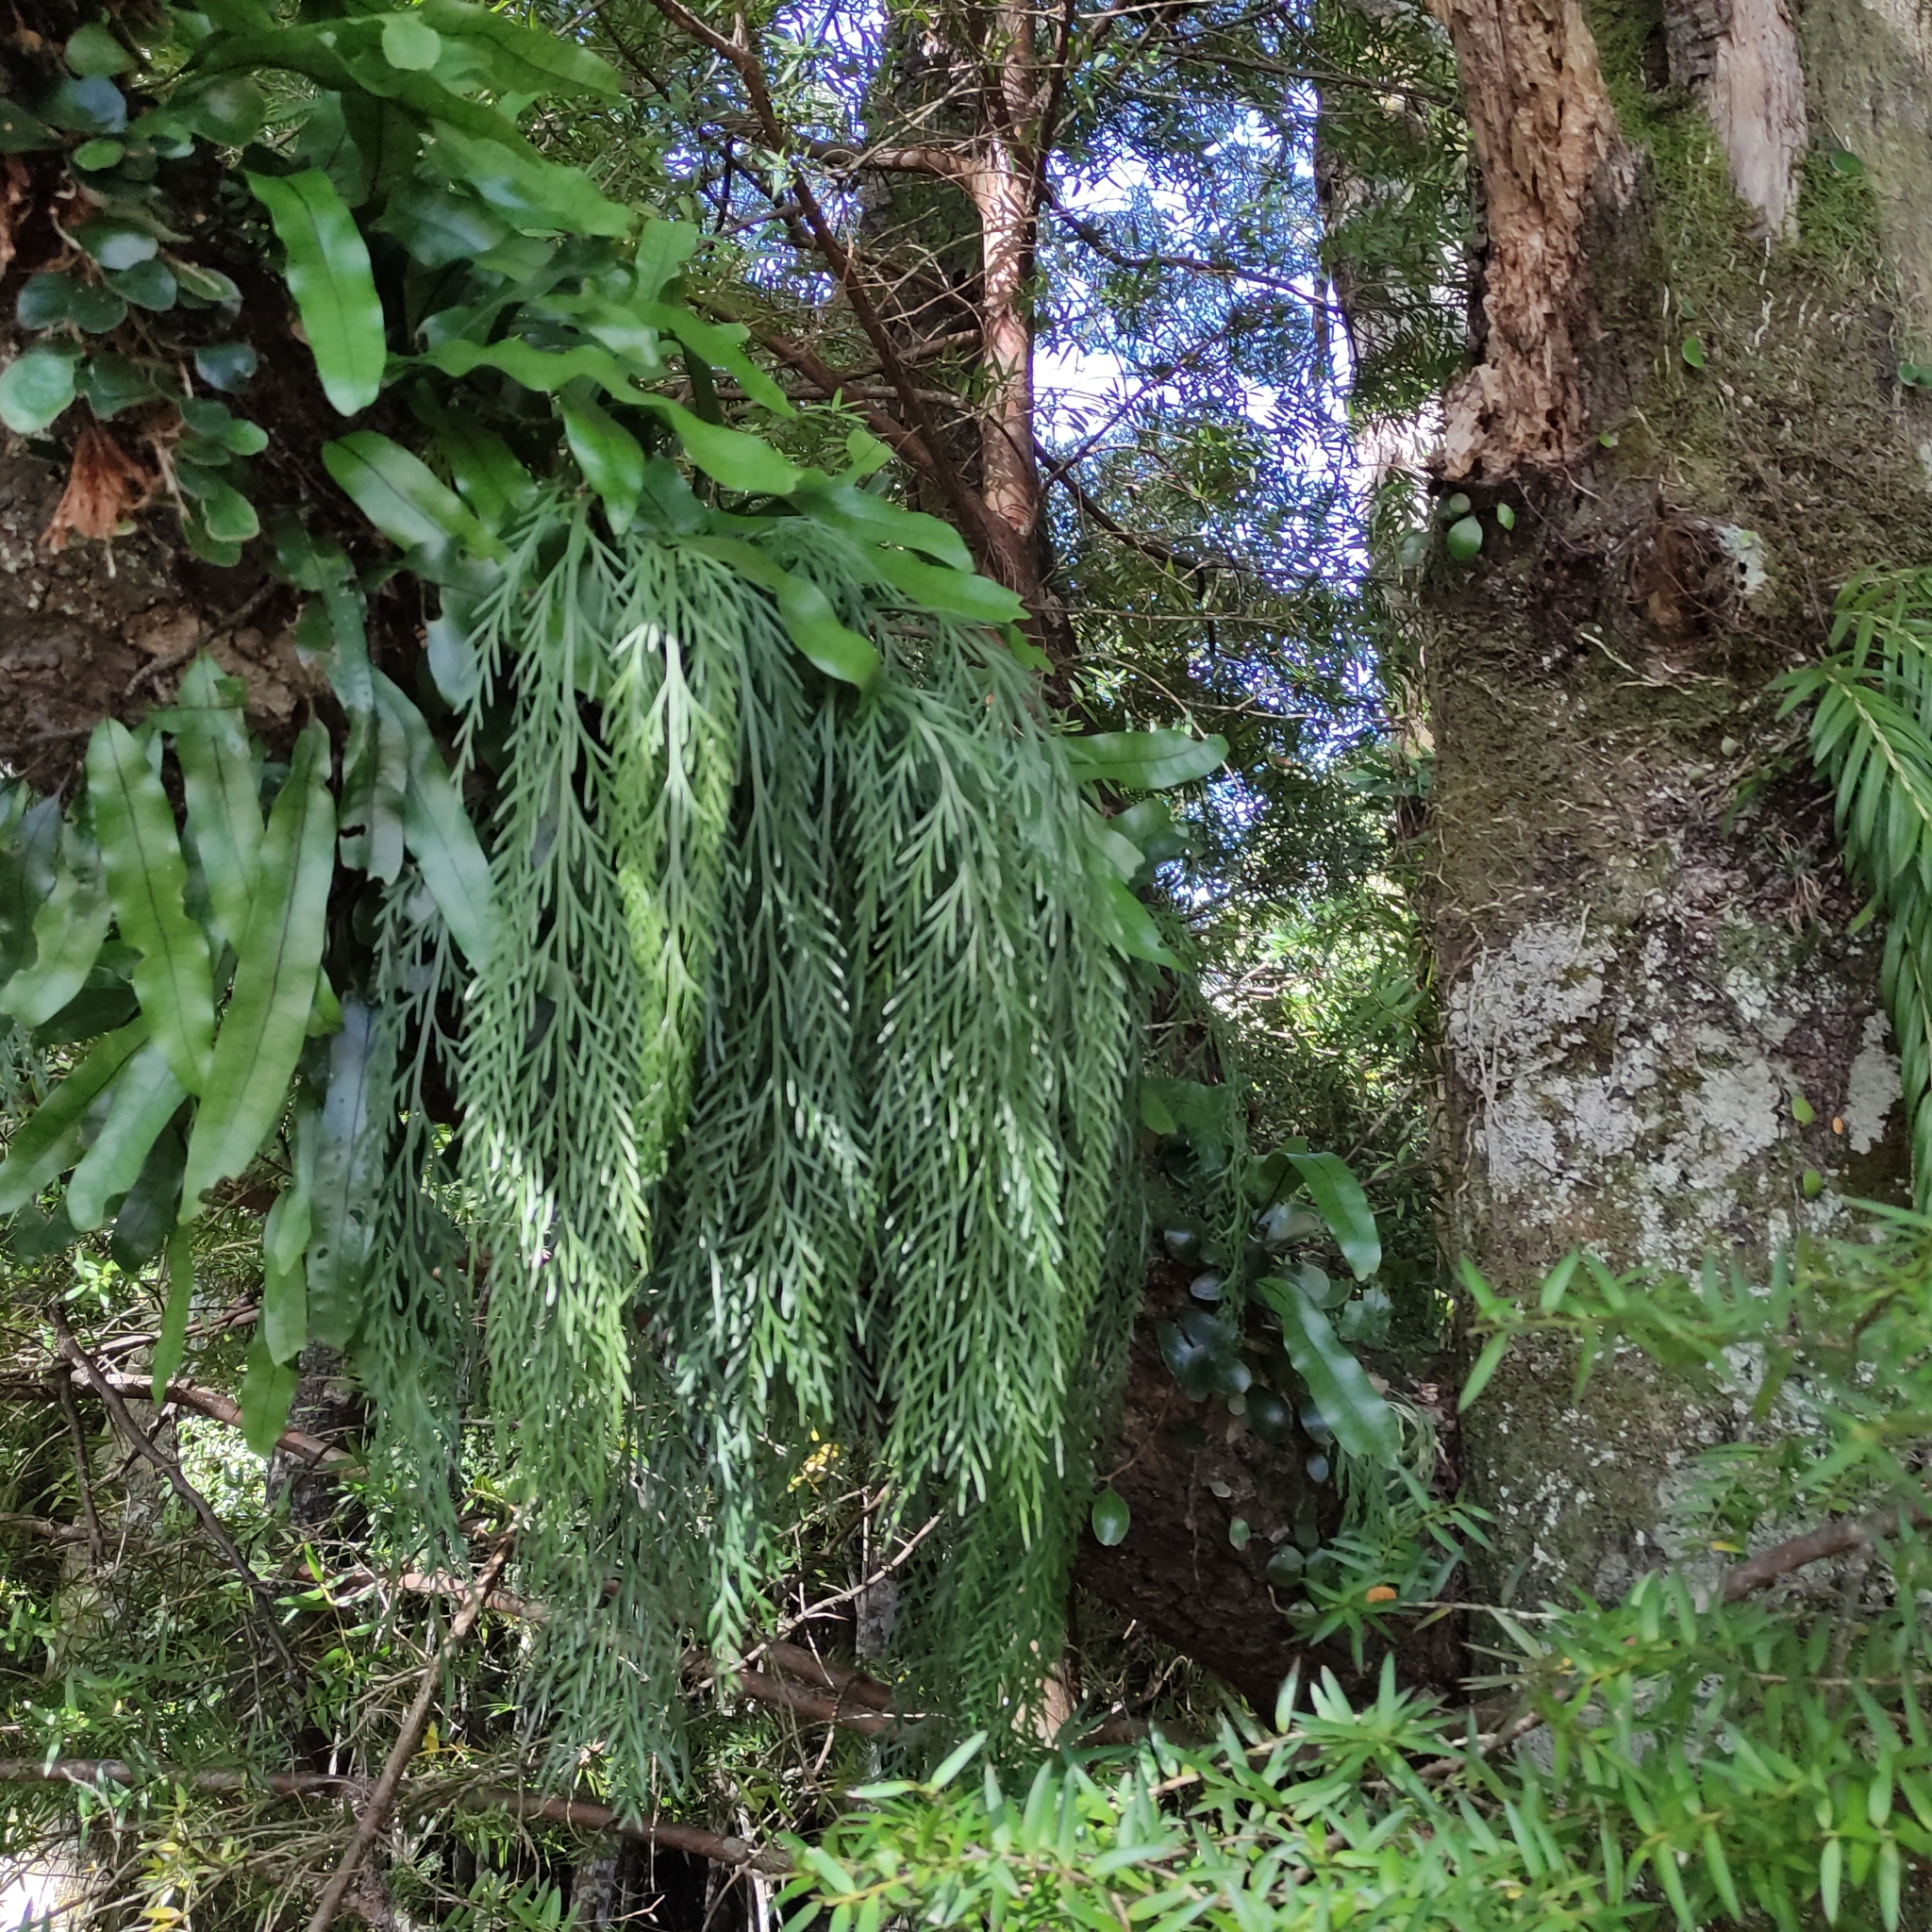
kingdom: Plantae
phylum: Tracheophyta
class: Polypodiopsida
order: Polypodiales
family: Aspleniaceae
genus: Asplenium
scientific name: Asplenium flaccidum
